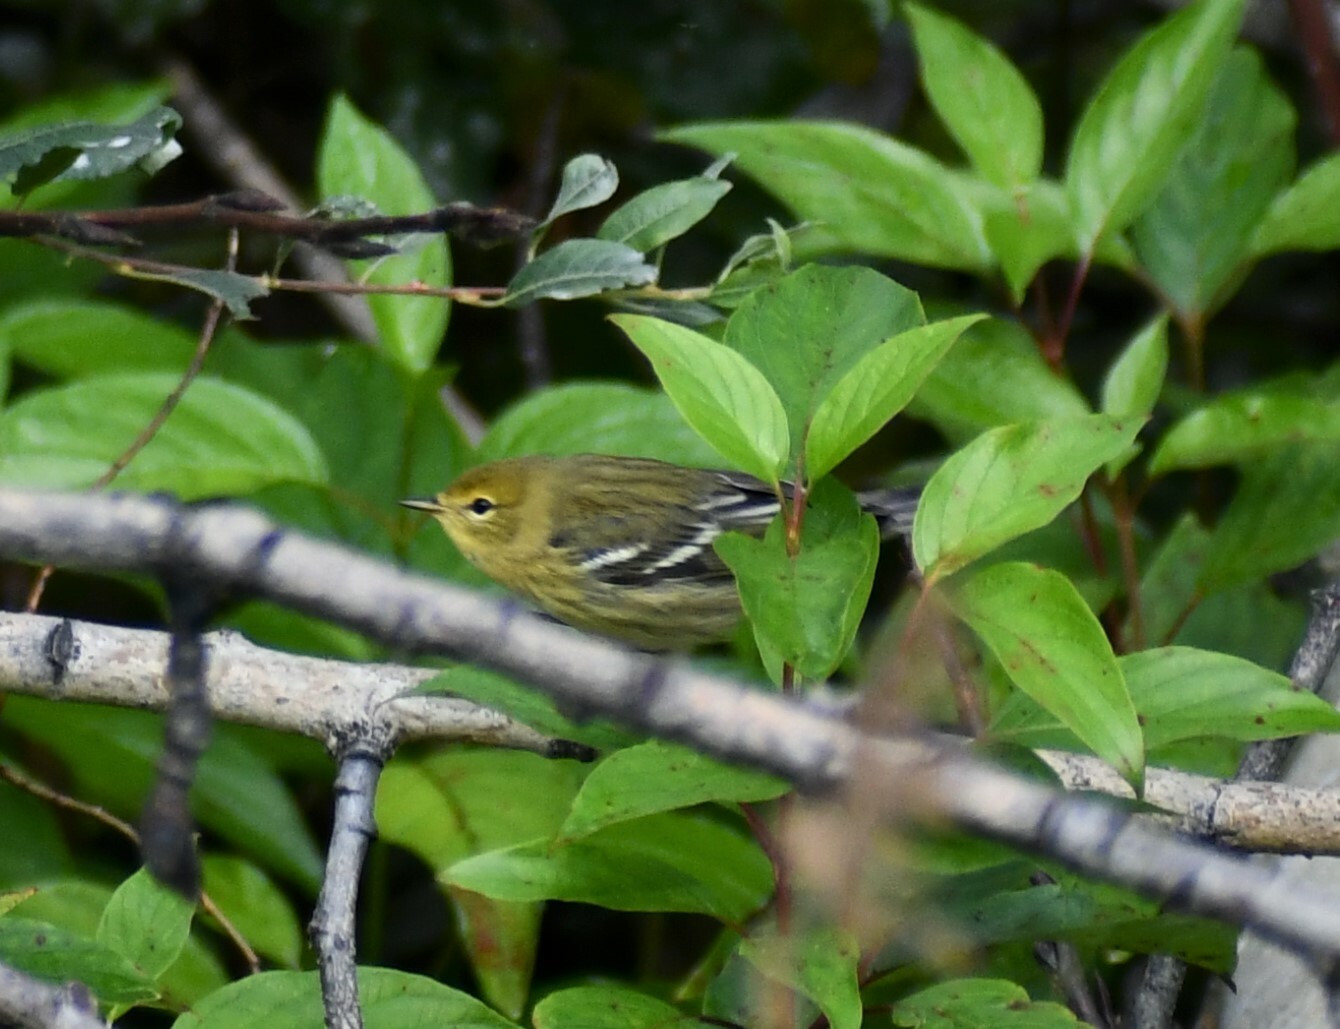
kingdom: Animalia
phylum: Chordata
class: Aves
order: Passeriformes
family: Parulidae
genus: Setophaga
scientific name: Setophaga striata
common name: Blackpoll warbler
